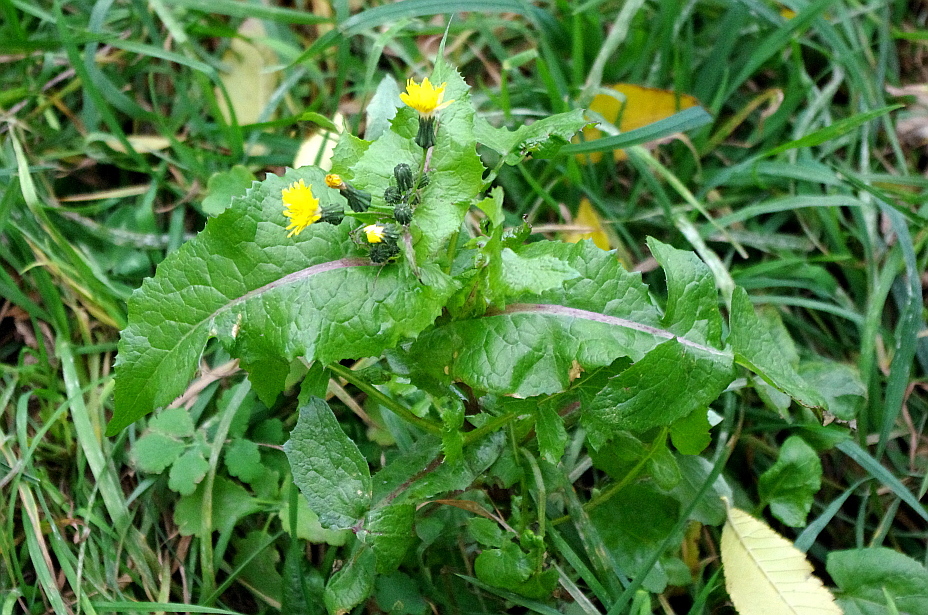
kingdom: Plantae
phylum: Tracheophyta
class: Magnoliopsida
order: Asterales
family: Asteraceae
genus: Sonchus
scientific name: Sonchus oleraceus
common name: Common sowthistle
